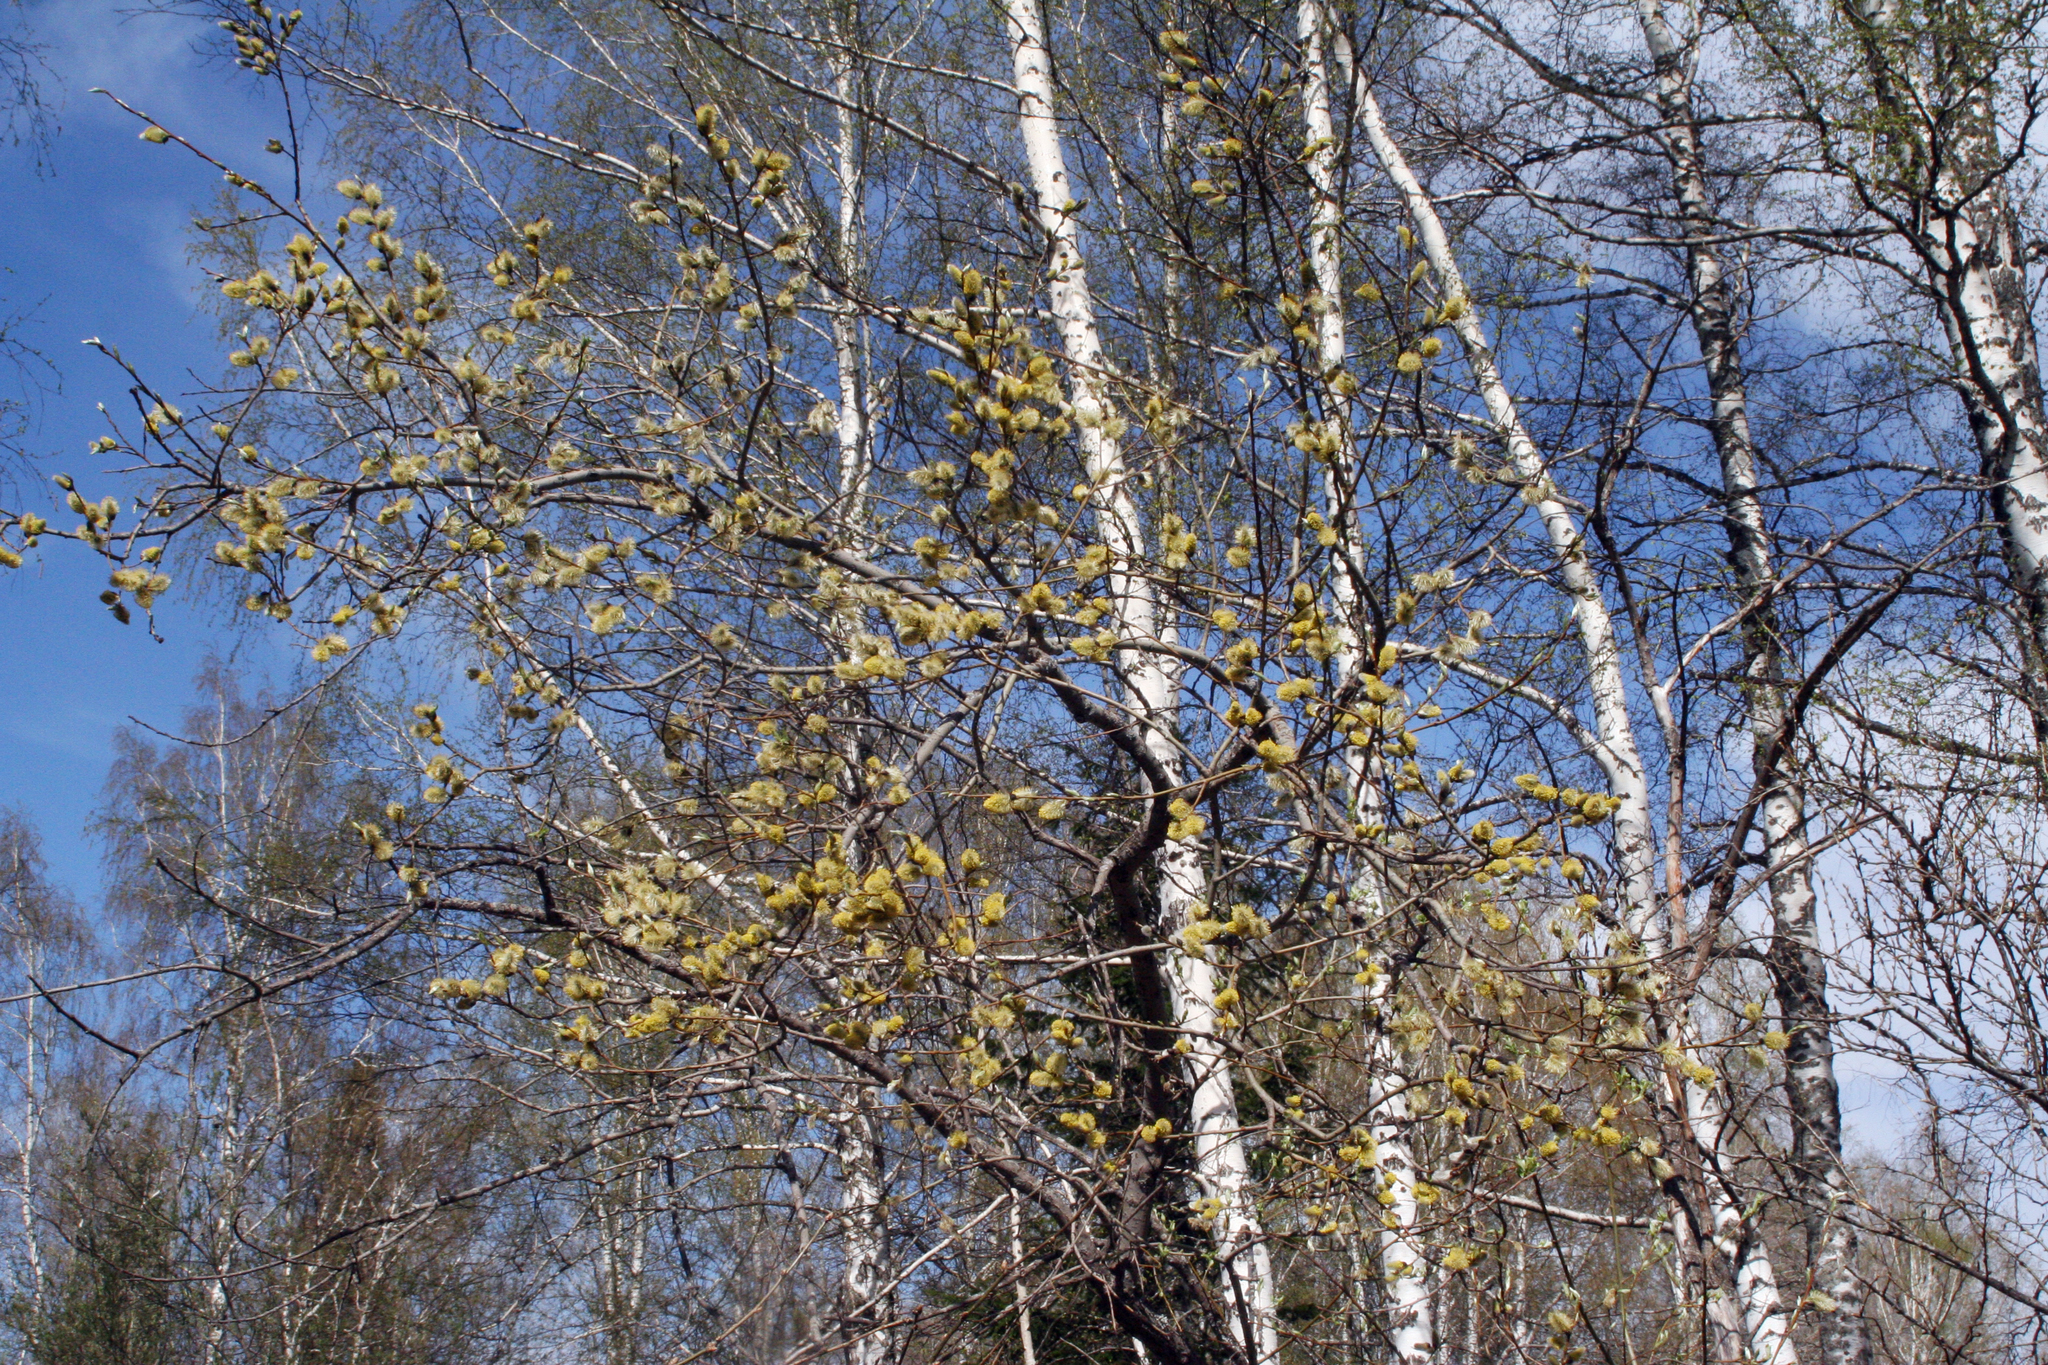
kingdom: Plantae
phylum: Tracheophyta
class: Magnoliopsida
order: Malpighiales
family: Salicaceae
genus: Salix
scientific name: Salix caprea
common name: Goat willow
